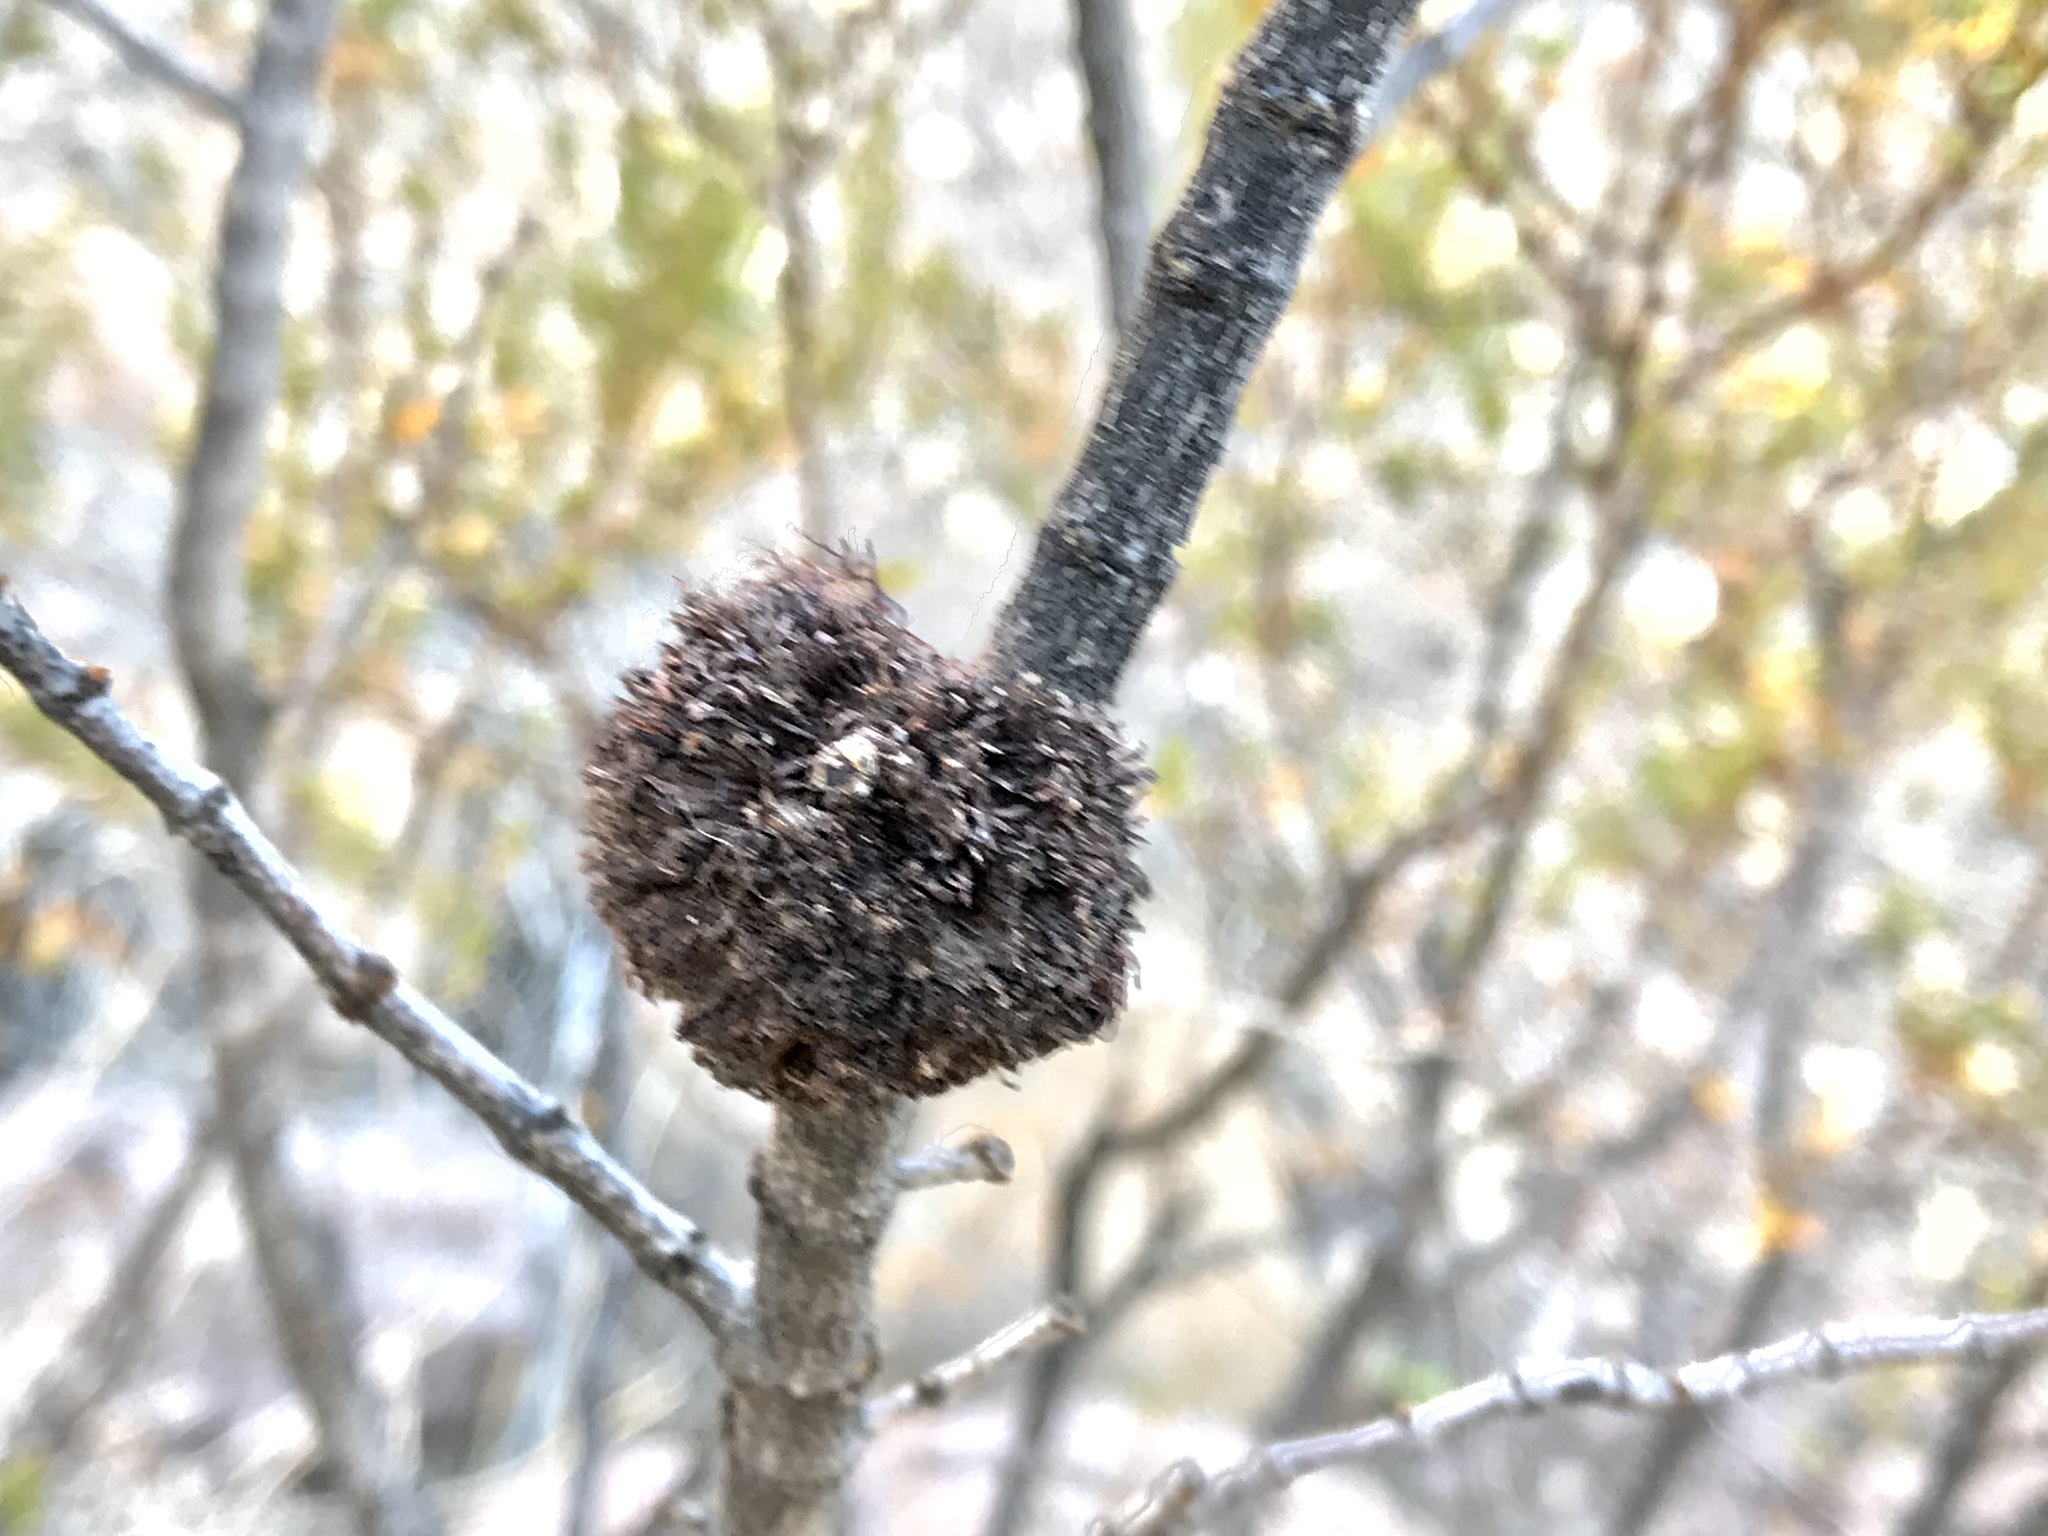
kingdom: Animalia
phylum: Arthropoda
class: Insecta
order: Diptera
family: Cecidomyiidae
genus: Asphondylia
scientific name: Asphondylia auripila
